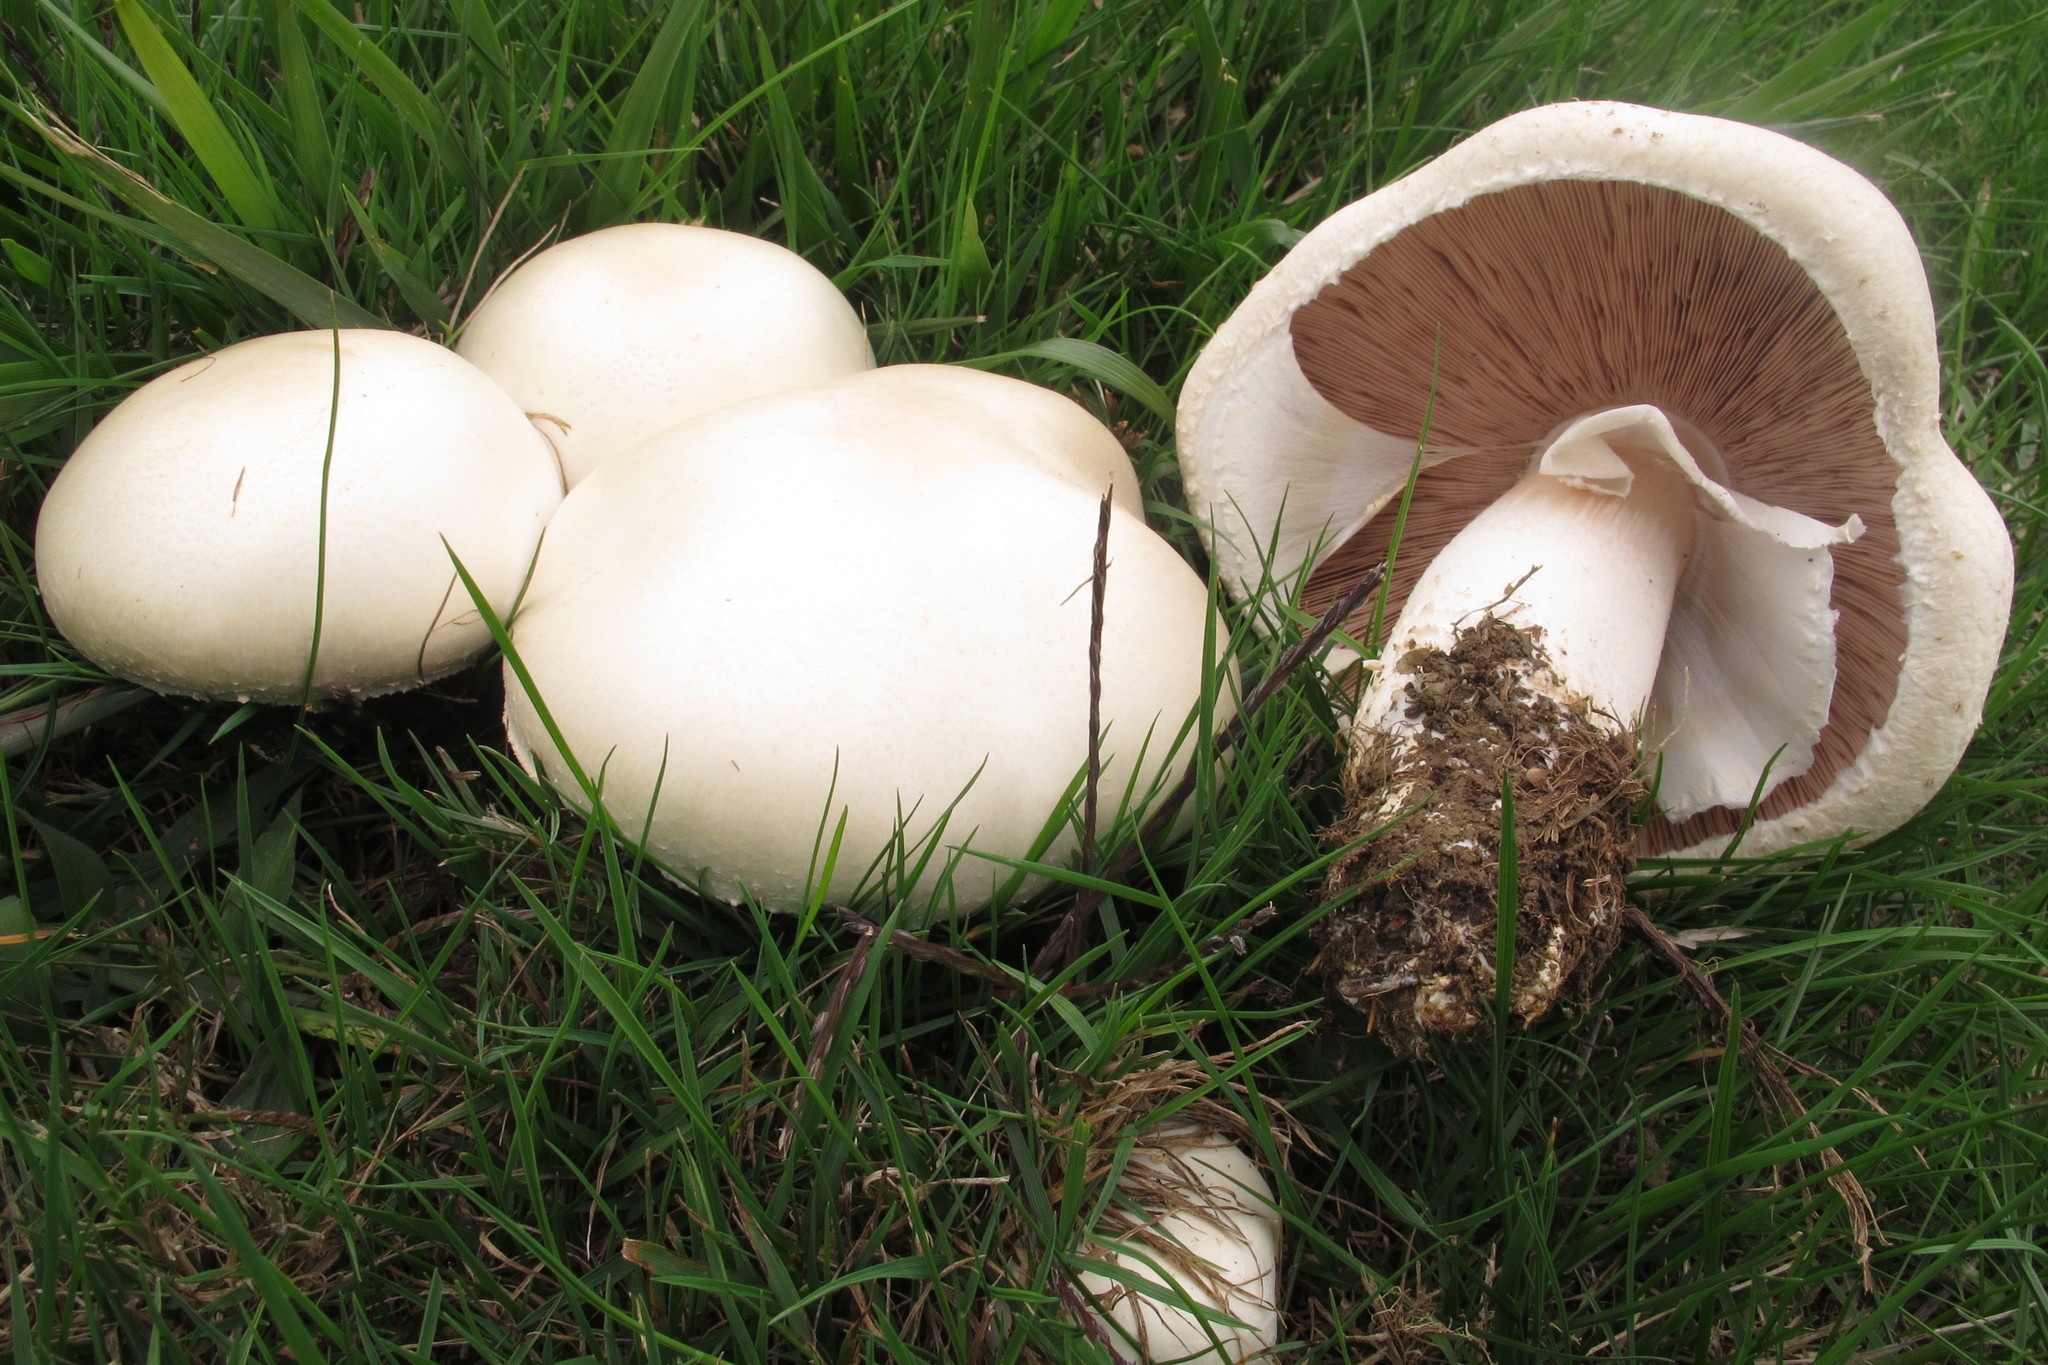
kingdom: Fungi
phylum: Basidiomycota
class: Agaricomycetes
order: Agaricales
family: Agaricaceae
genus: Agaricus
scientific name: Agaricus arvensis
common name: Horse mushroom
